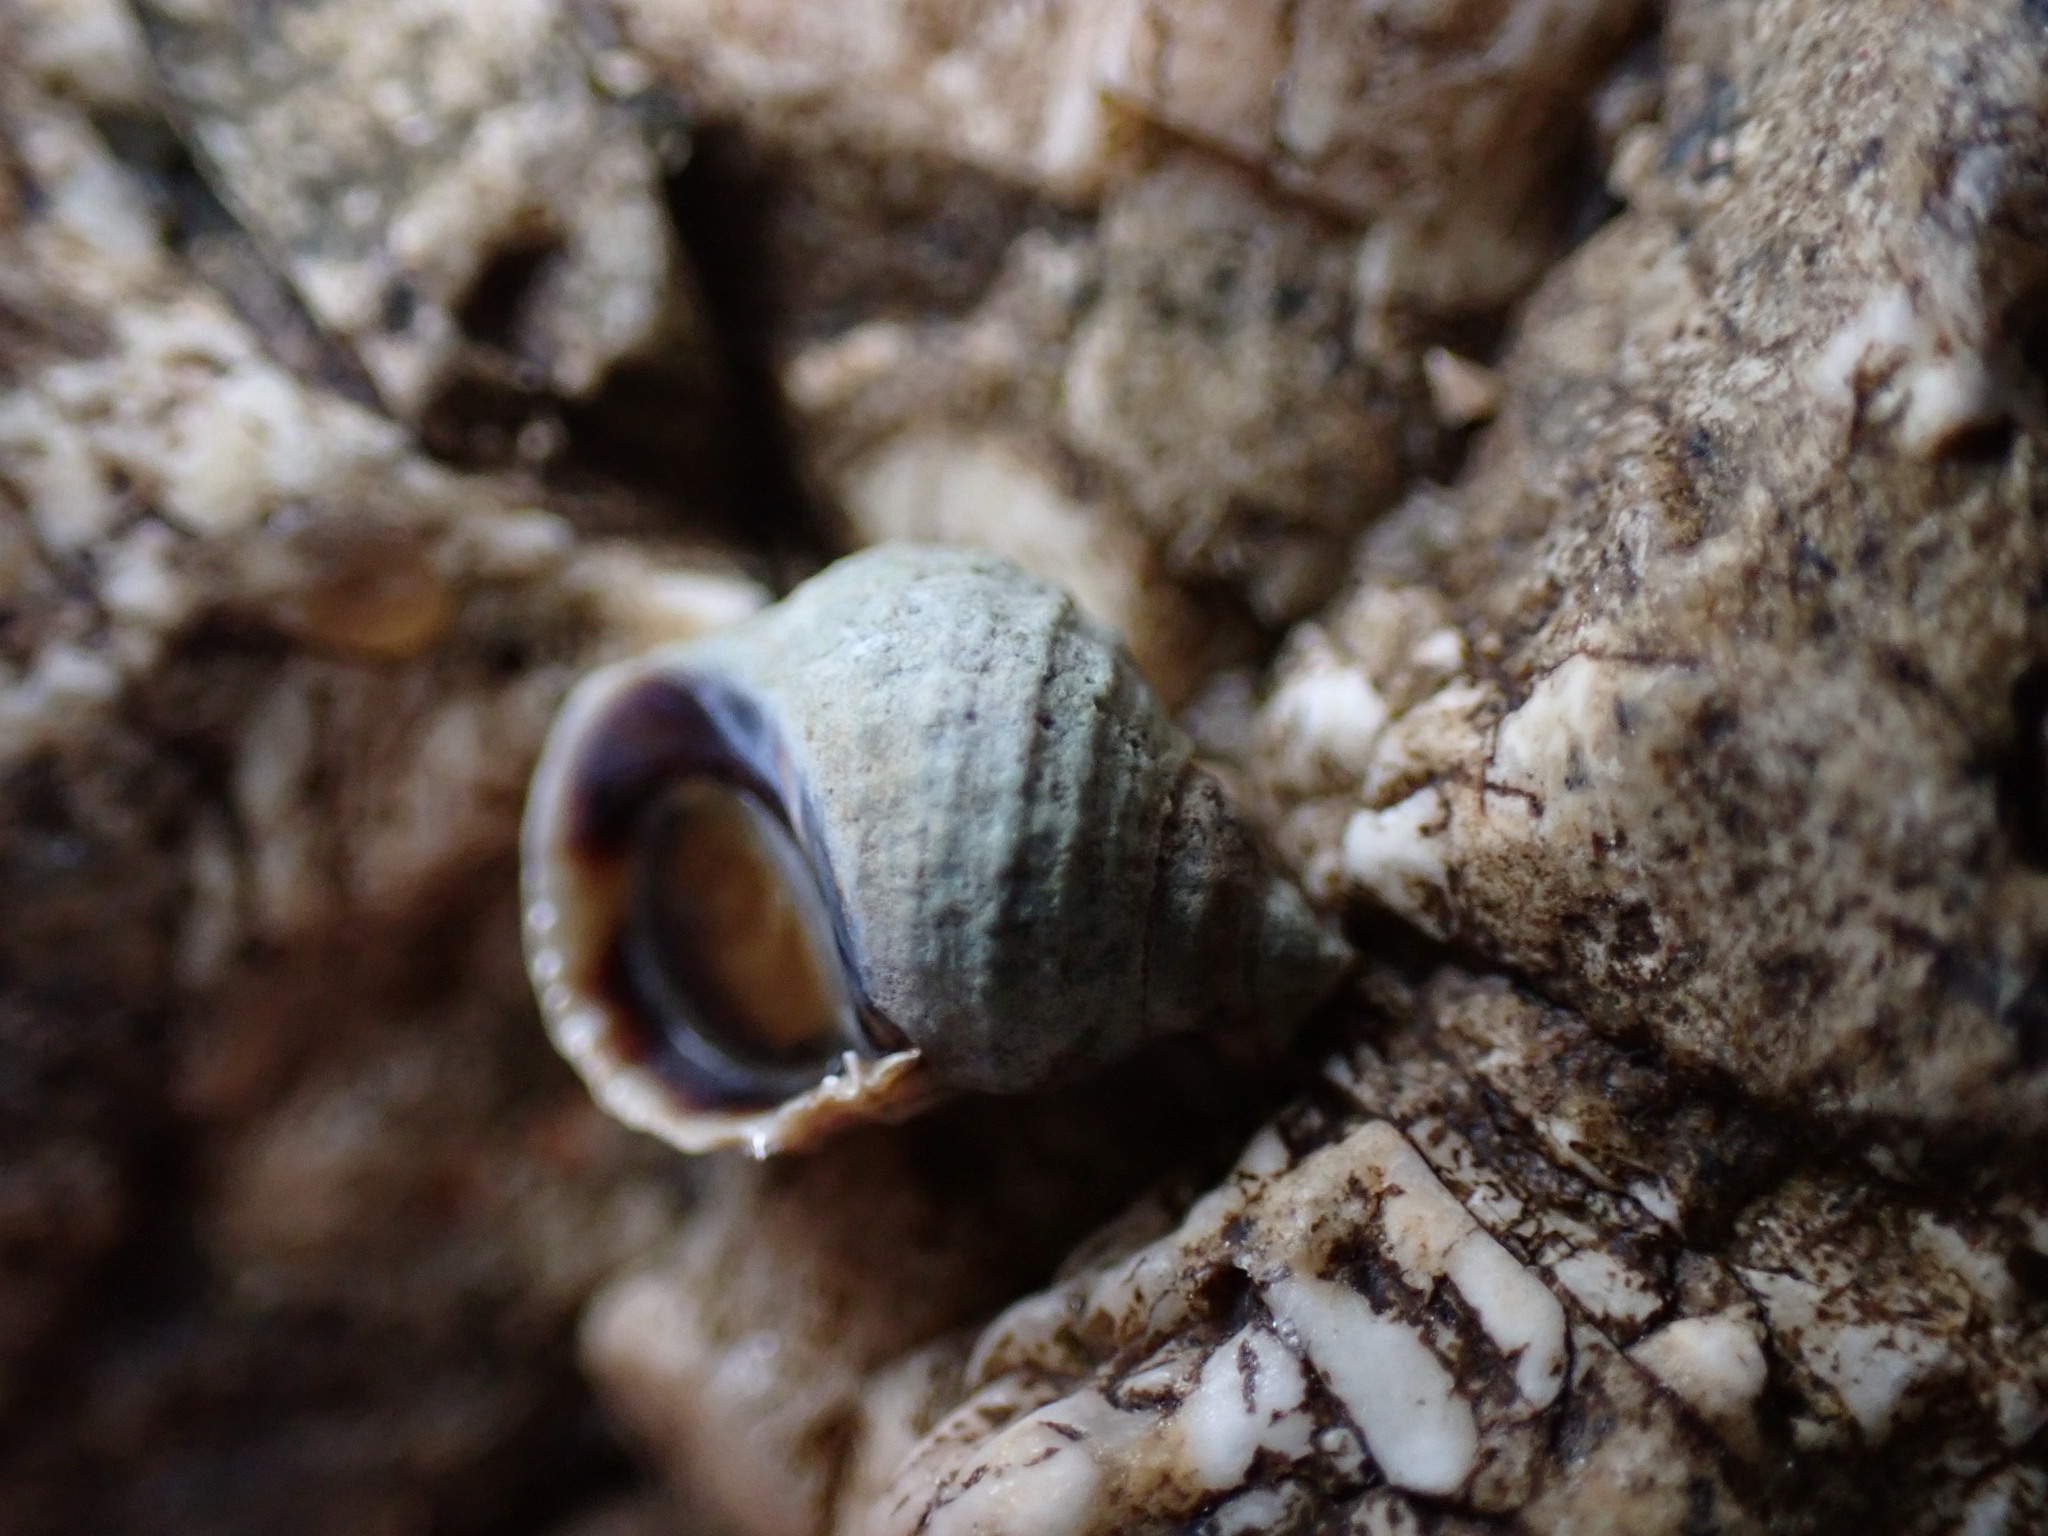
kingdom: Animalia
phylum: Mollusca
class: Gastropoda
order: Littorinimorpha
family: Littorinidae
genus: Echinolittorina
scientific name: Echinolittorina radiata
